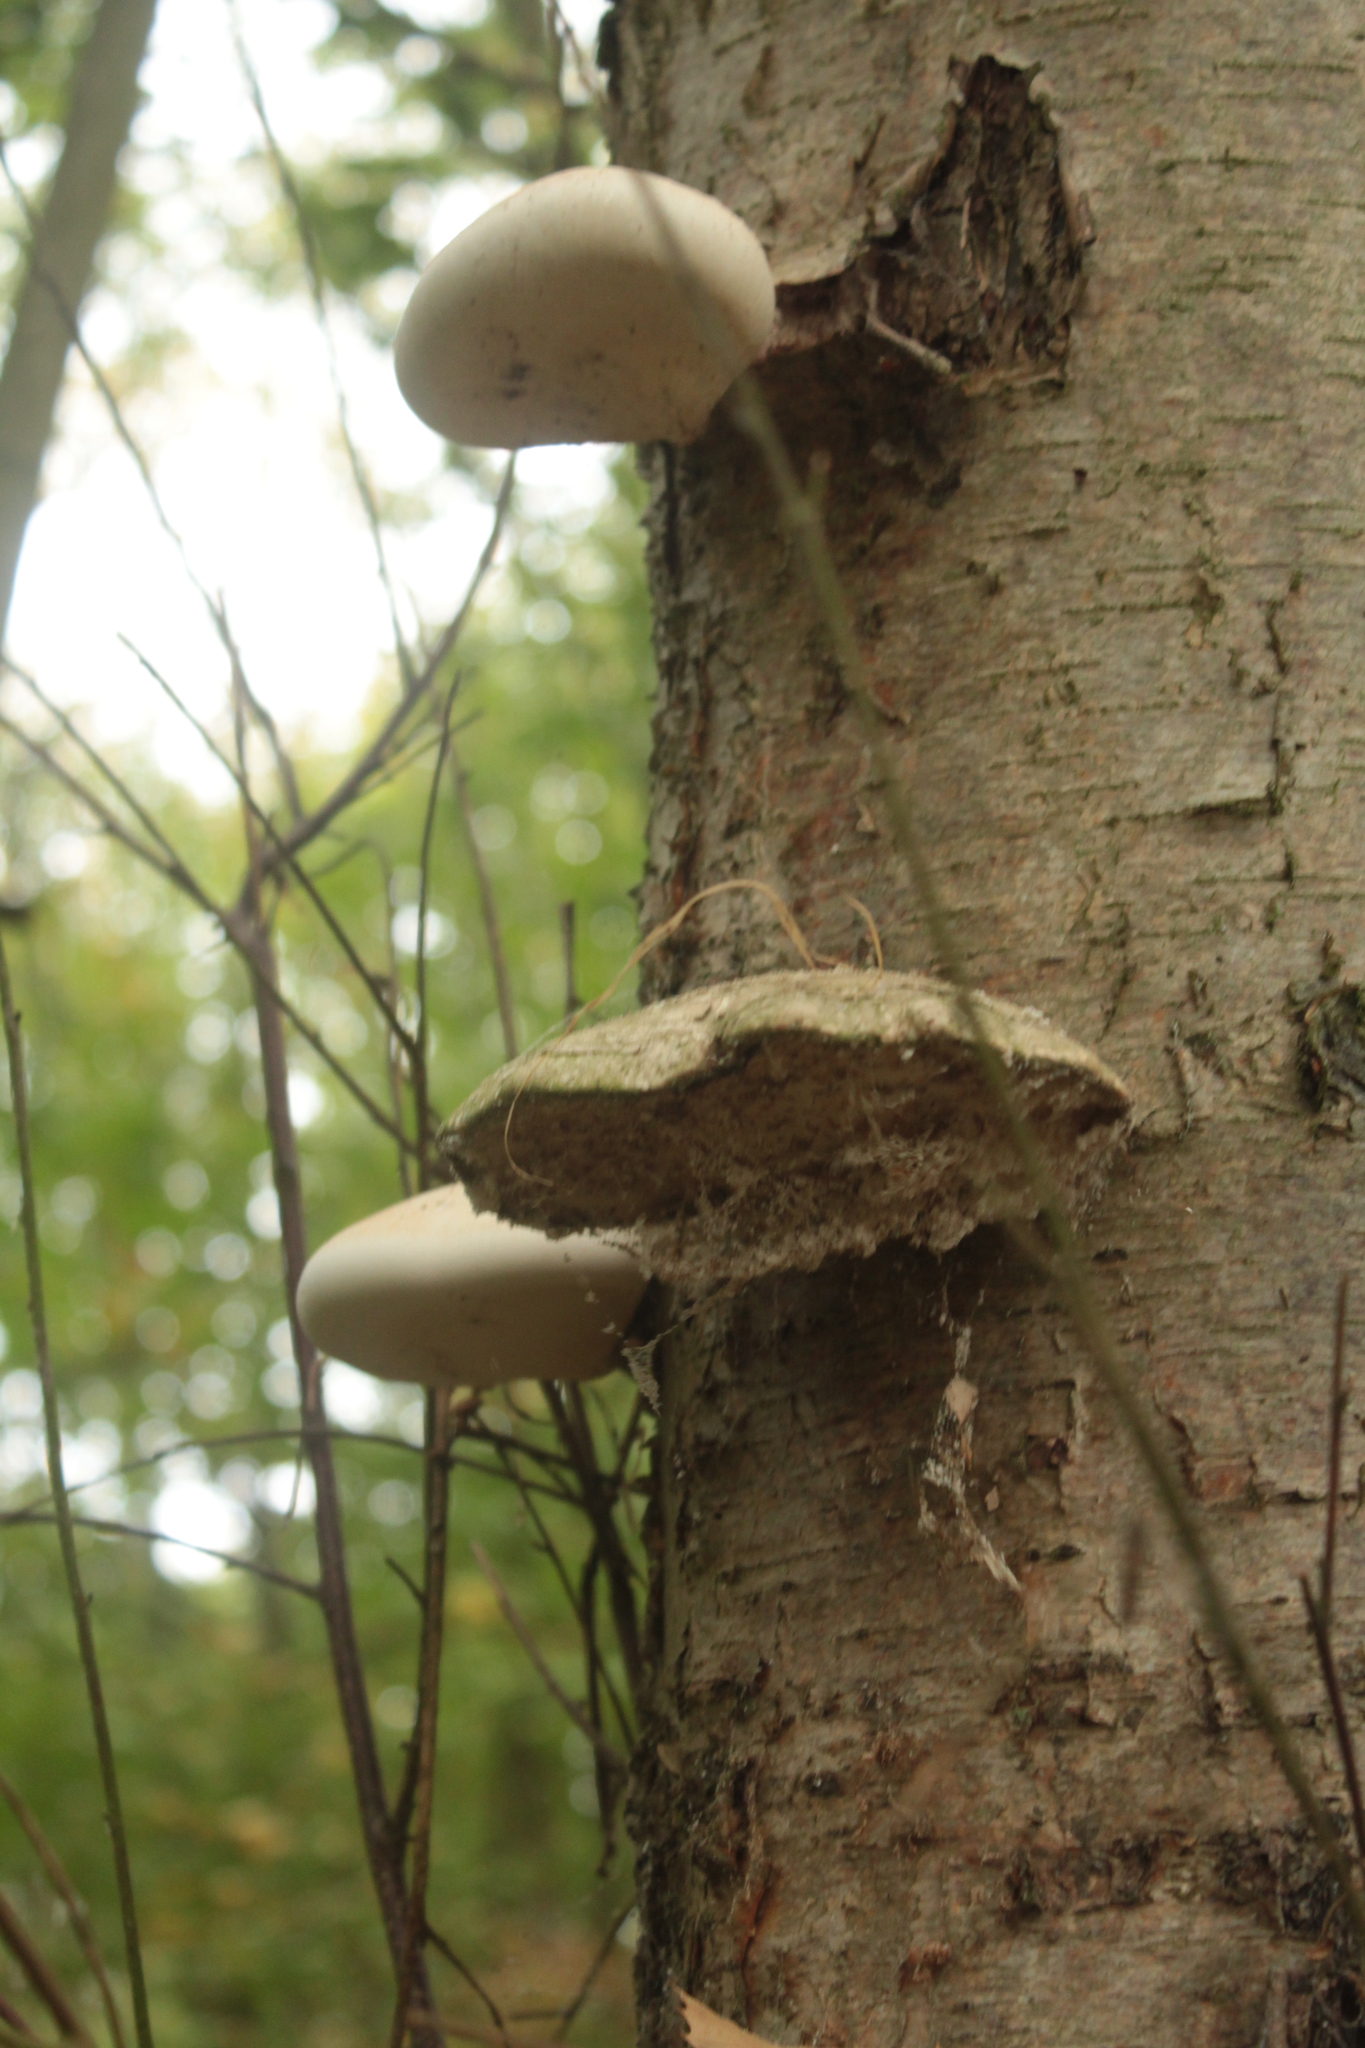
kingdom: Fungi
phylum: Basidiomycota
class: Agaricomycetes
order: Polyporales
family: Fomitopsidaceae
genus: Fomitopsis
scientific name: Fomitopsis betulina
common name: Birch polypore
